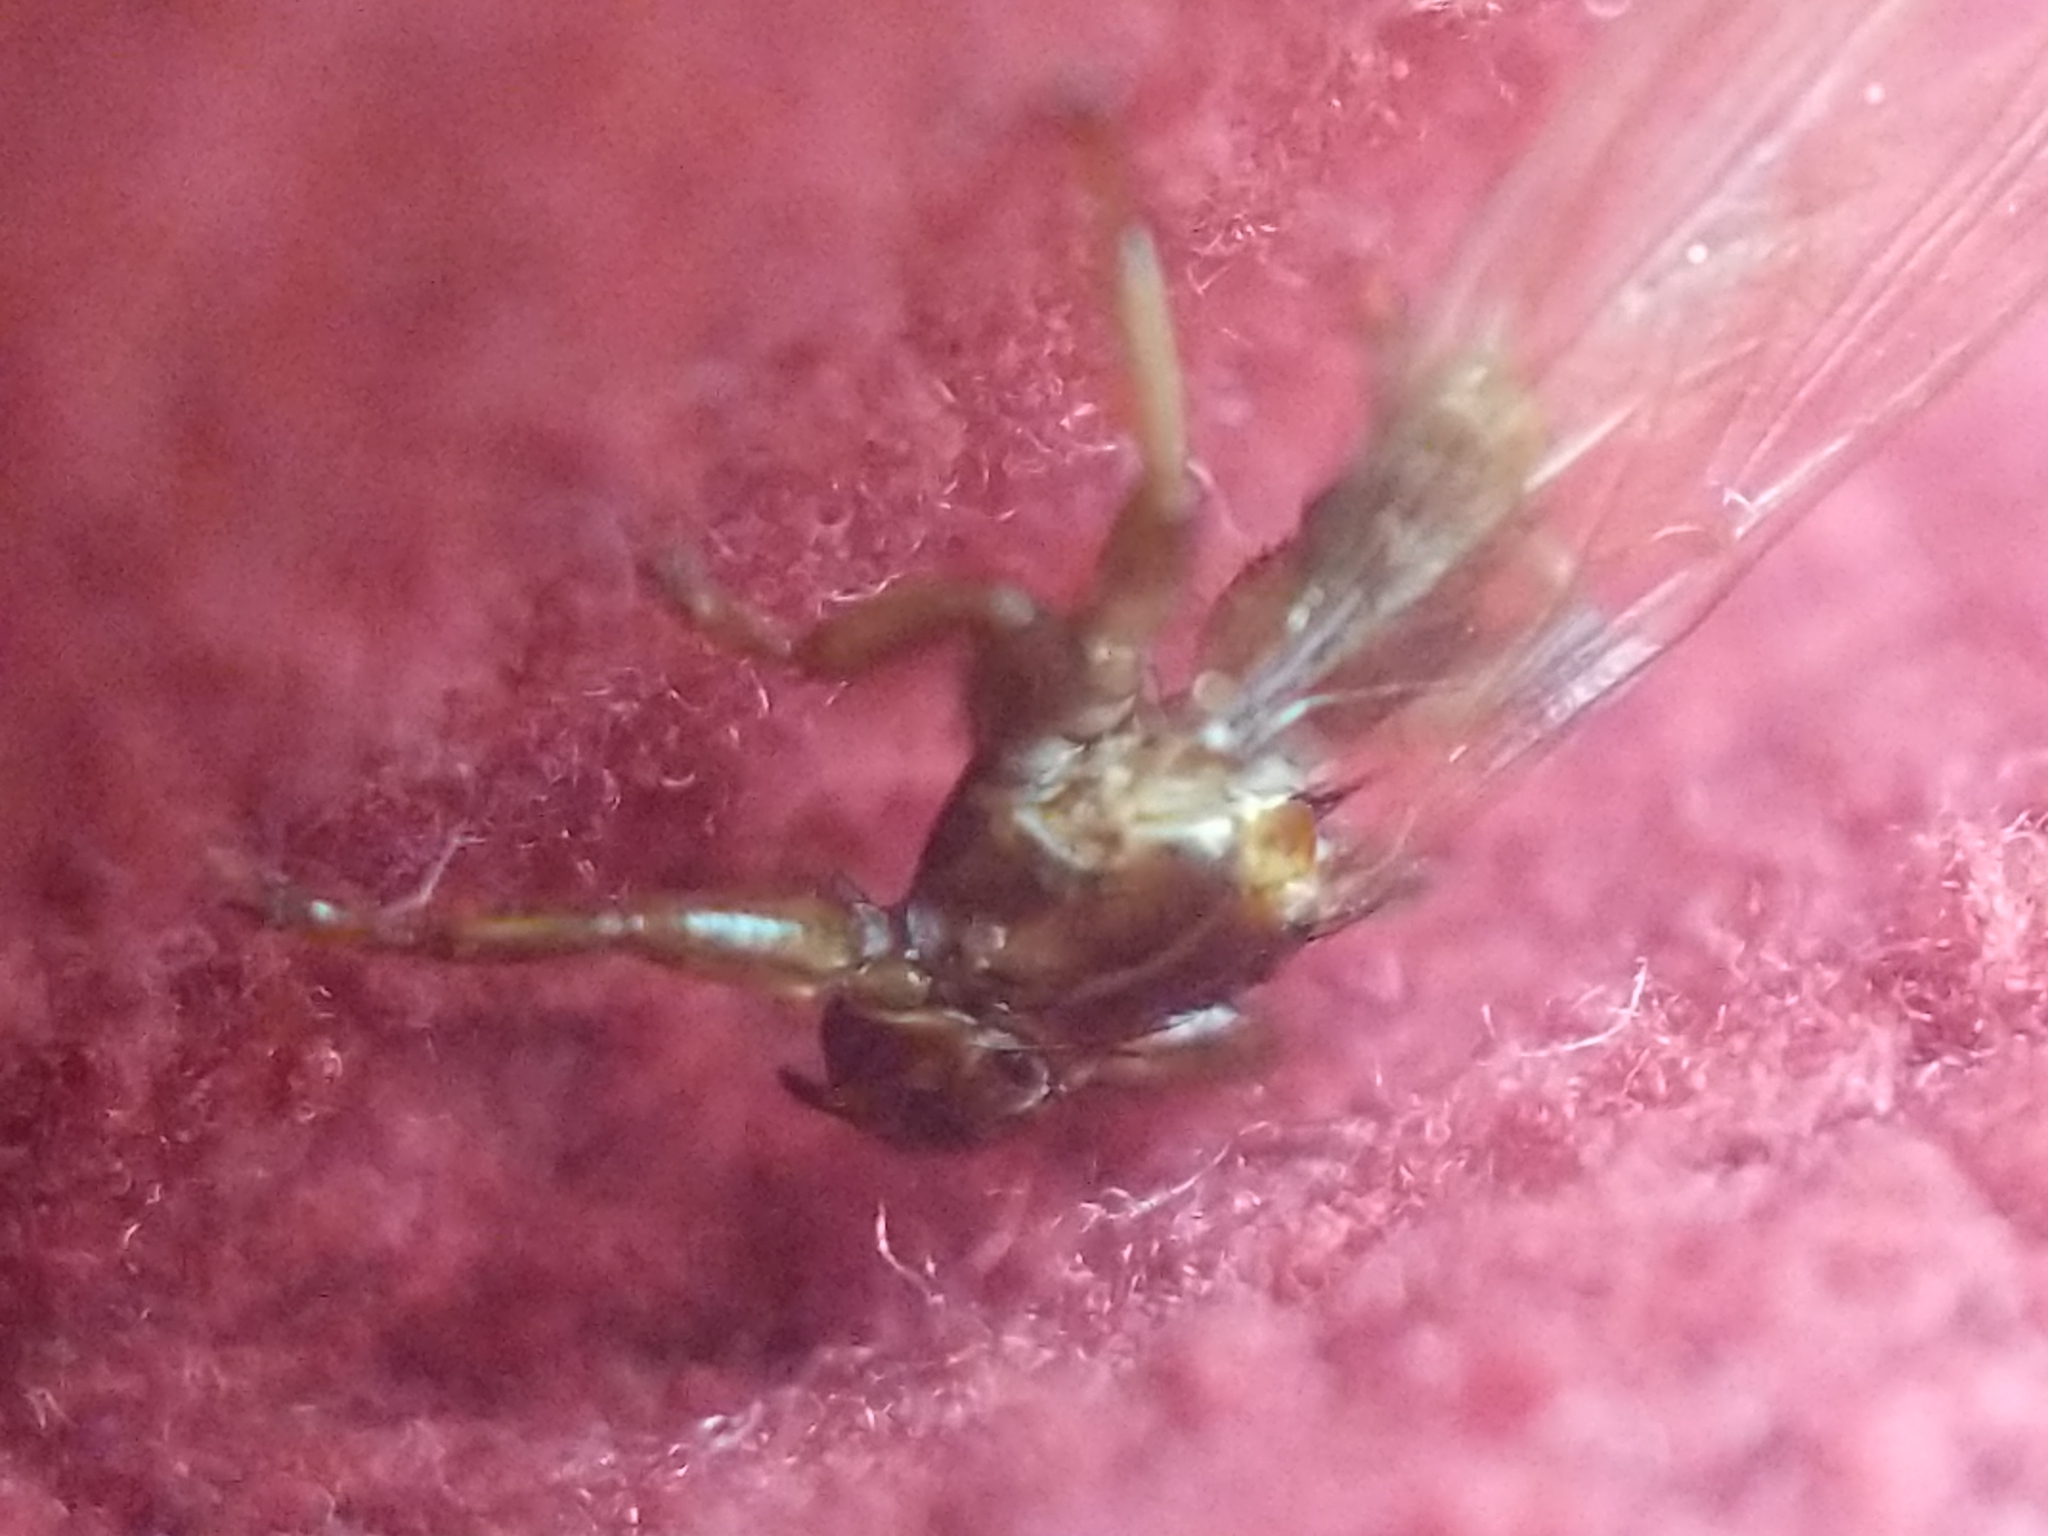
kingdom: Animalia
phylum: Arthropoda
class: Insecta
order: Diptera
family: Hippoboscidae
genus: Lipoptena
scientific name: Lipoptena cervi
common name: Deer ked
